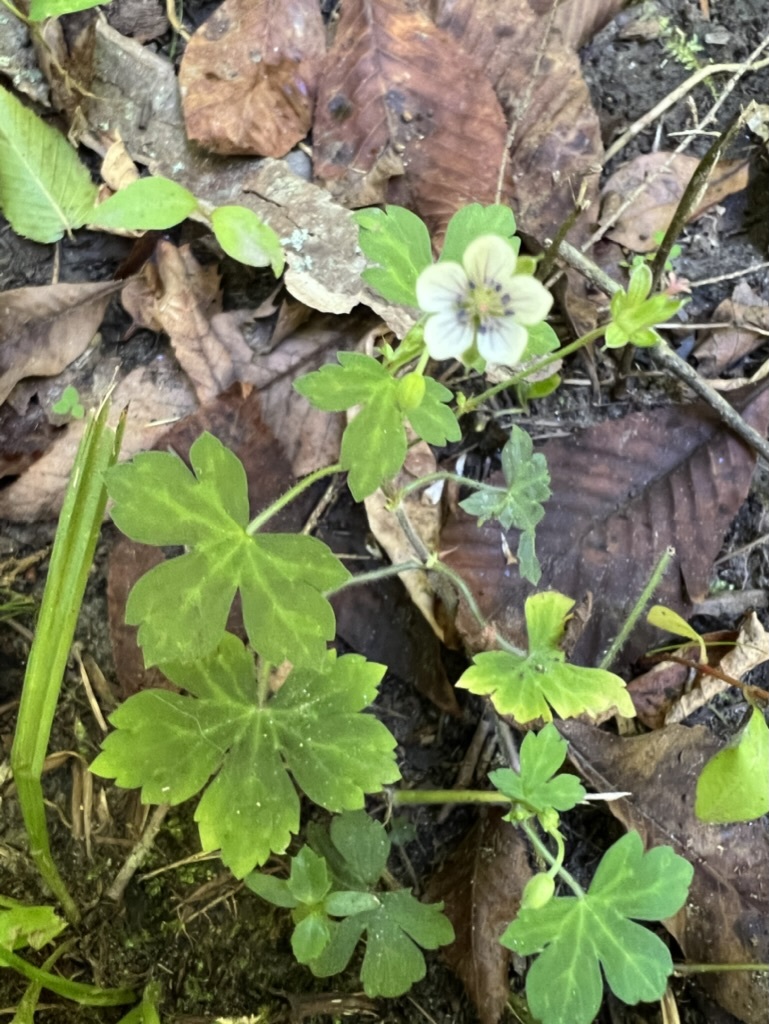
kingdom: Plantae
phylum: Tracheophyta
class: Magnoliopsida
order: Geraniales
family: Geraniaceae
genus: Geranium
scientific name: Geranium thunbergii
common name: Dewdrop crane's-bill
